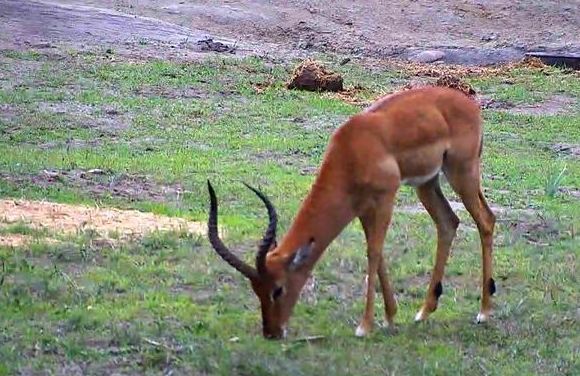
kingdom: Animalia
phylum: Chordata
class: Mammalia
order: Artiodactyla
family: Bovidae
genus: Aepyceros
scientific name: Aepyceros melampus
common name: Impala
